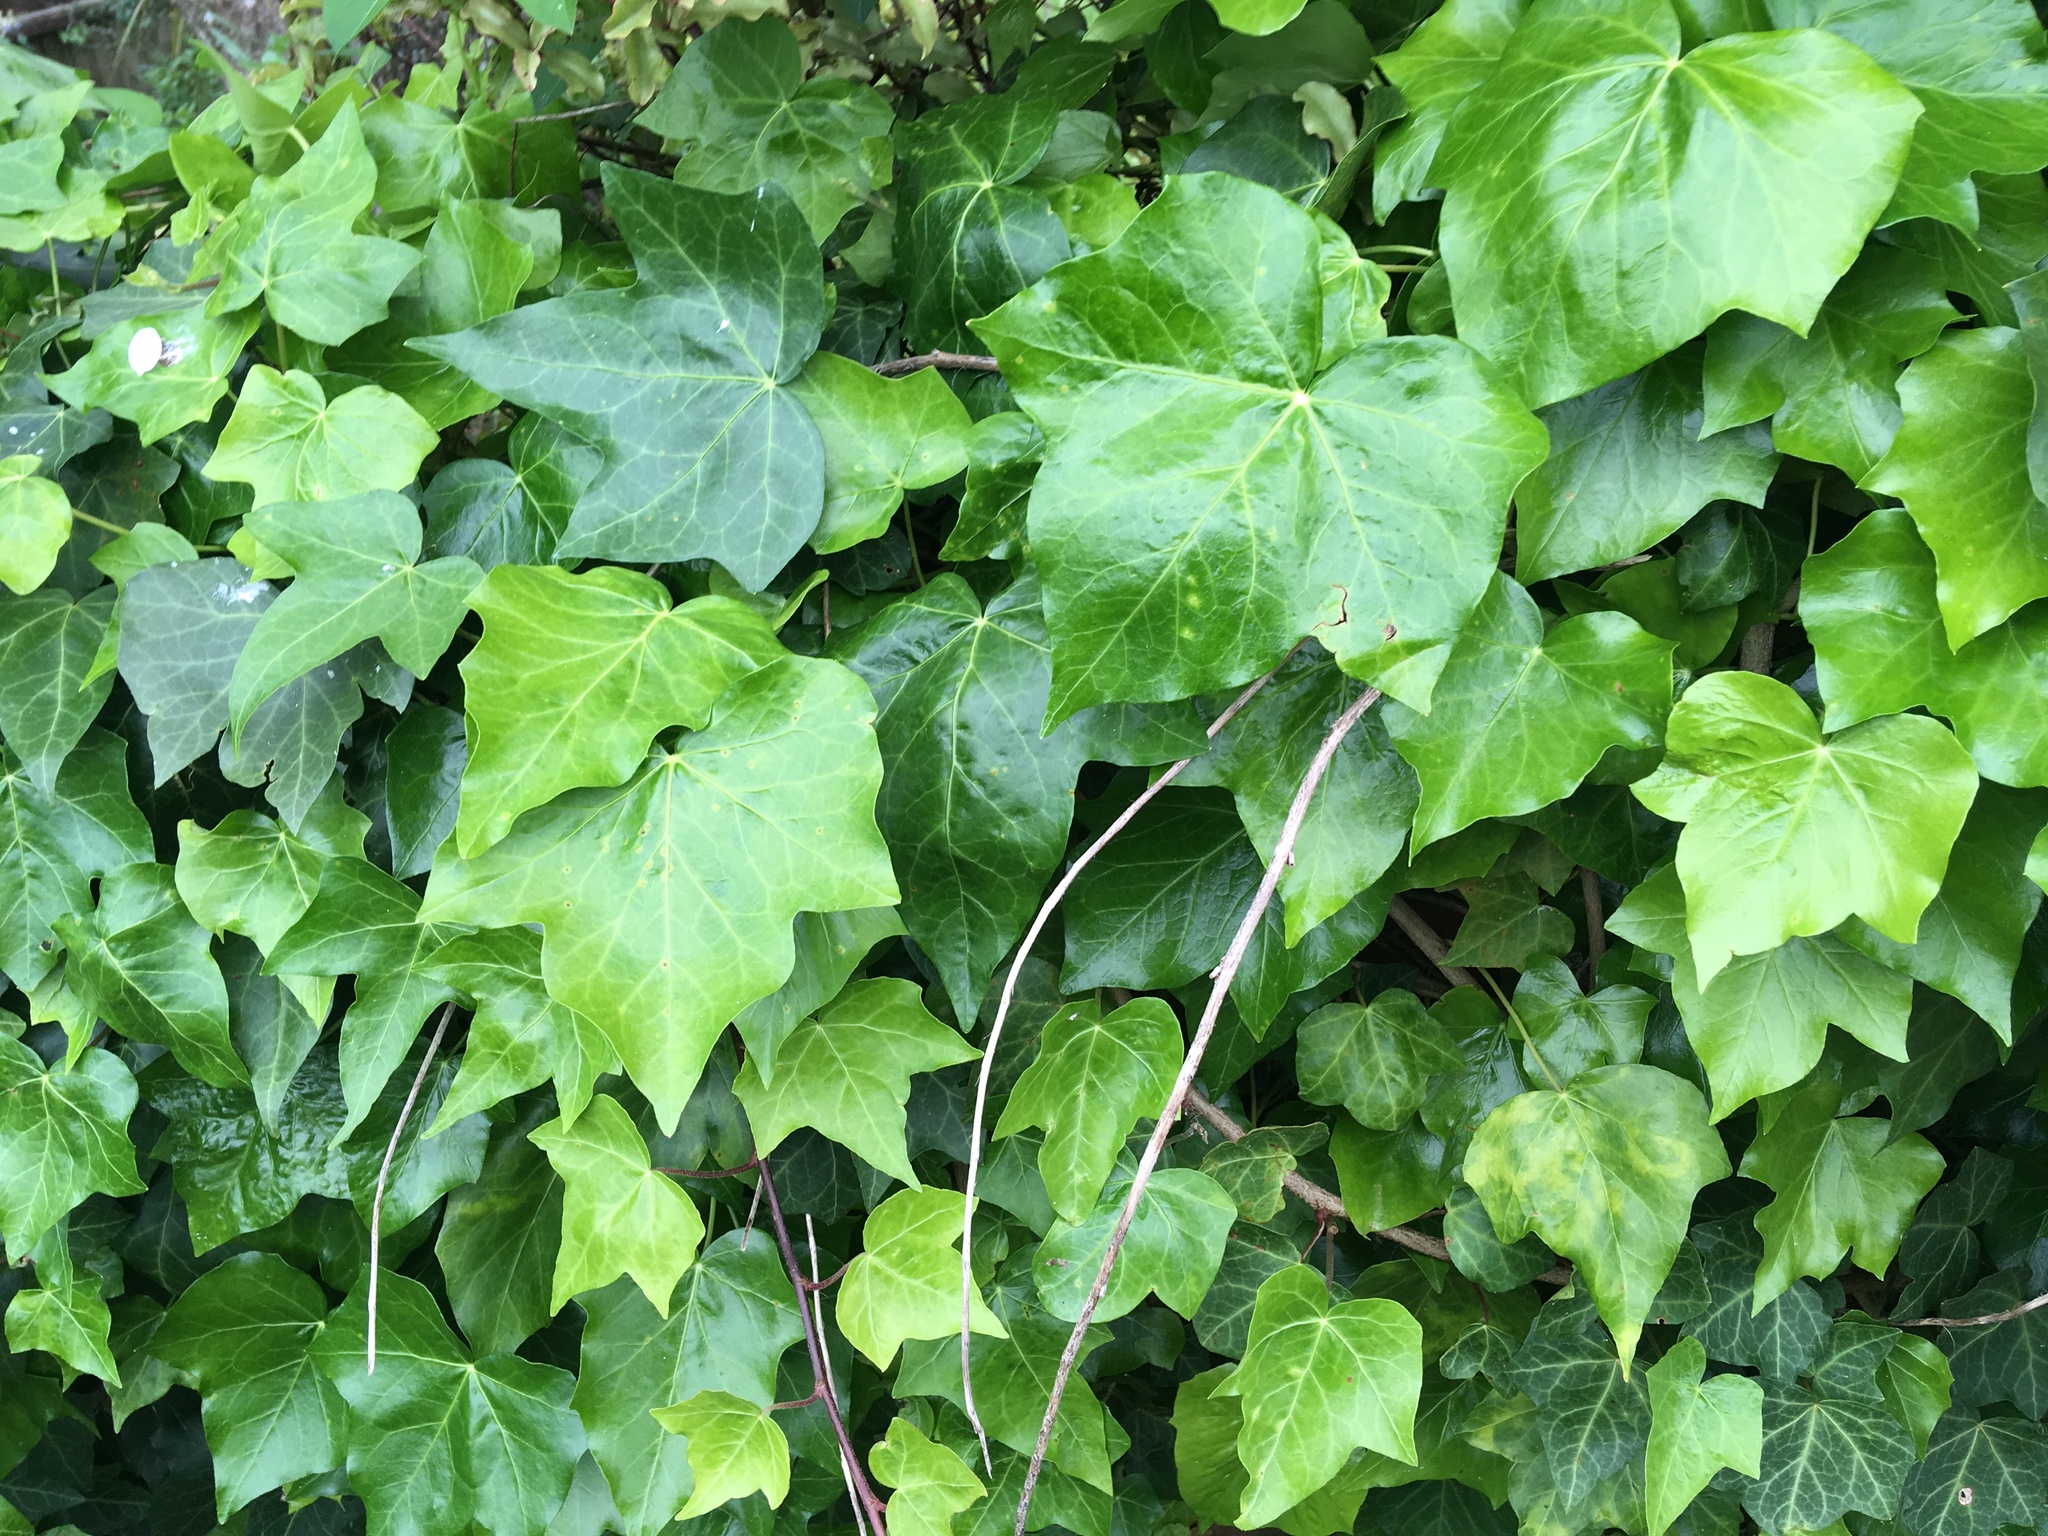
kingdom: Plantae
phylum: Tracheophyta
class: Magnoliopsida
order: Apiales
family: Araliaceae
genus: Hedera
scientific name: Hedera helix
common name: Ivy
